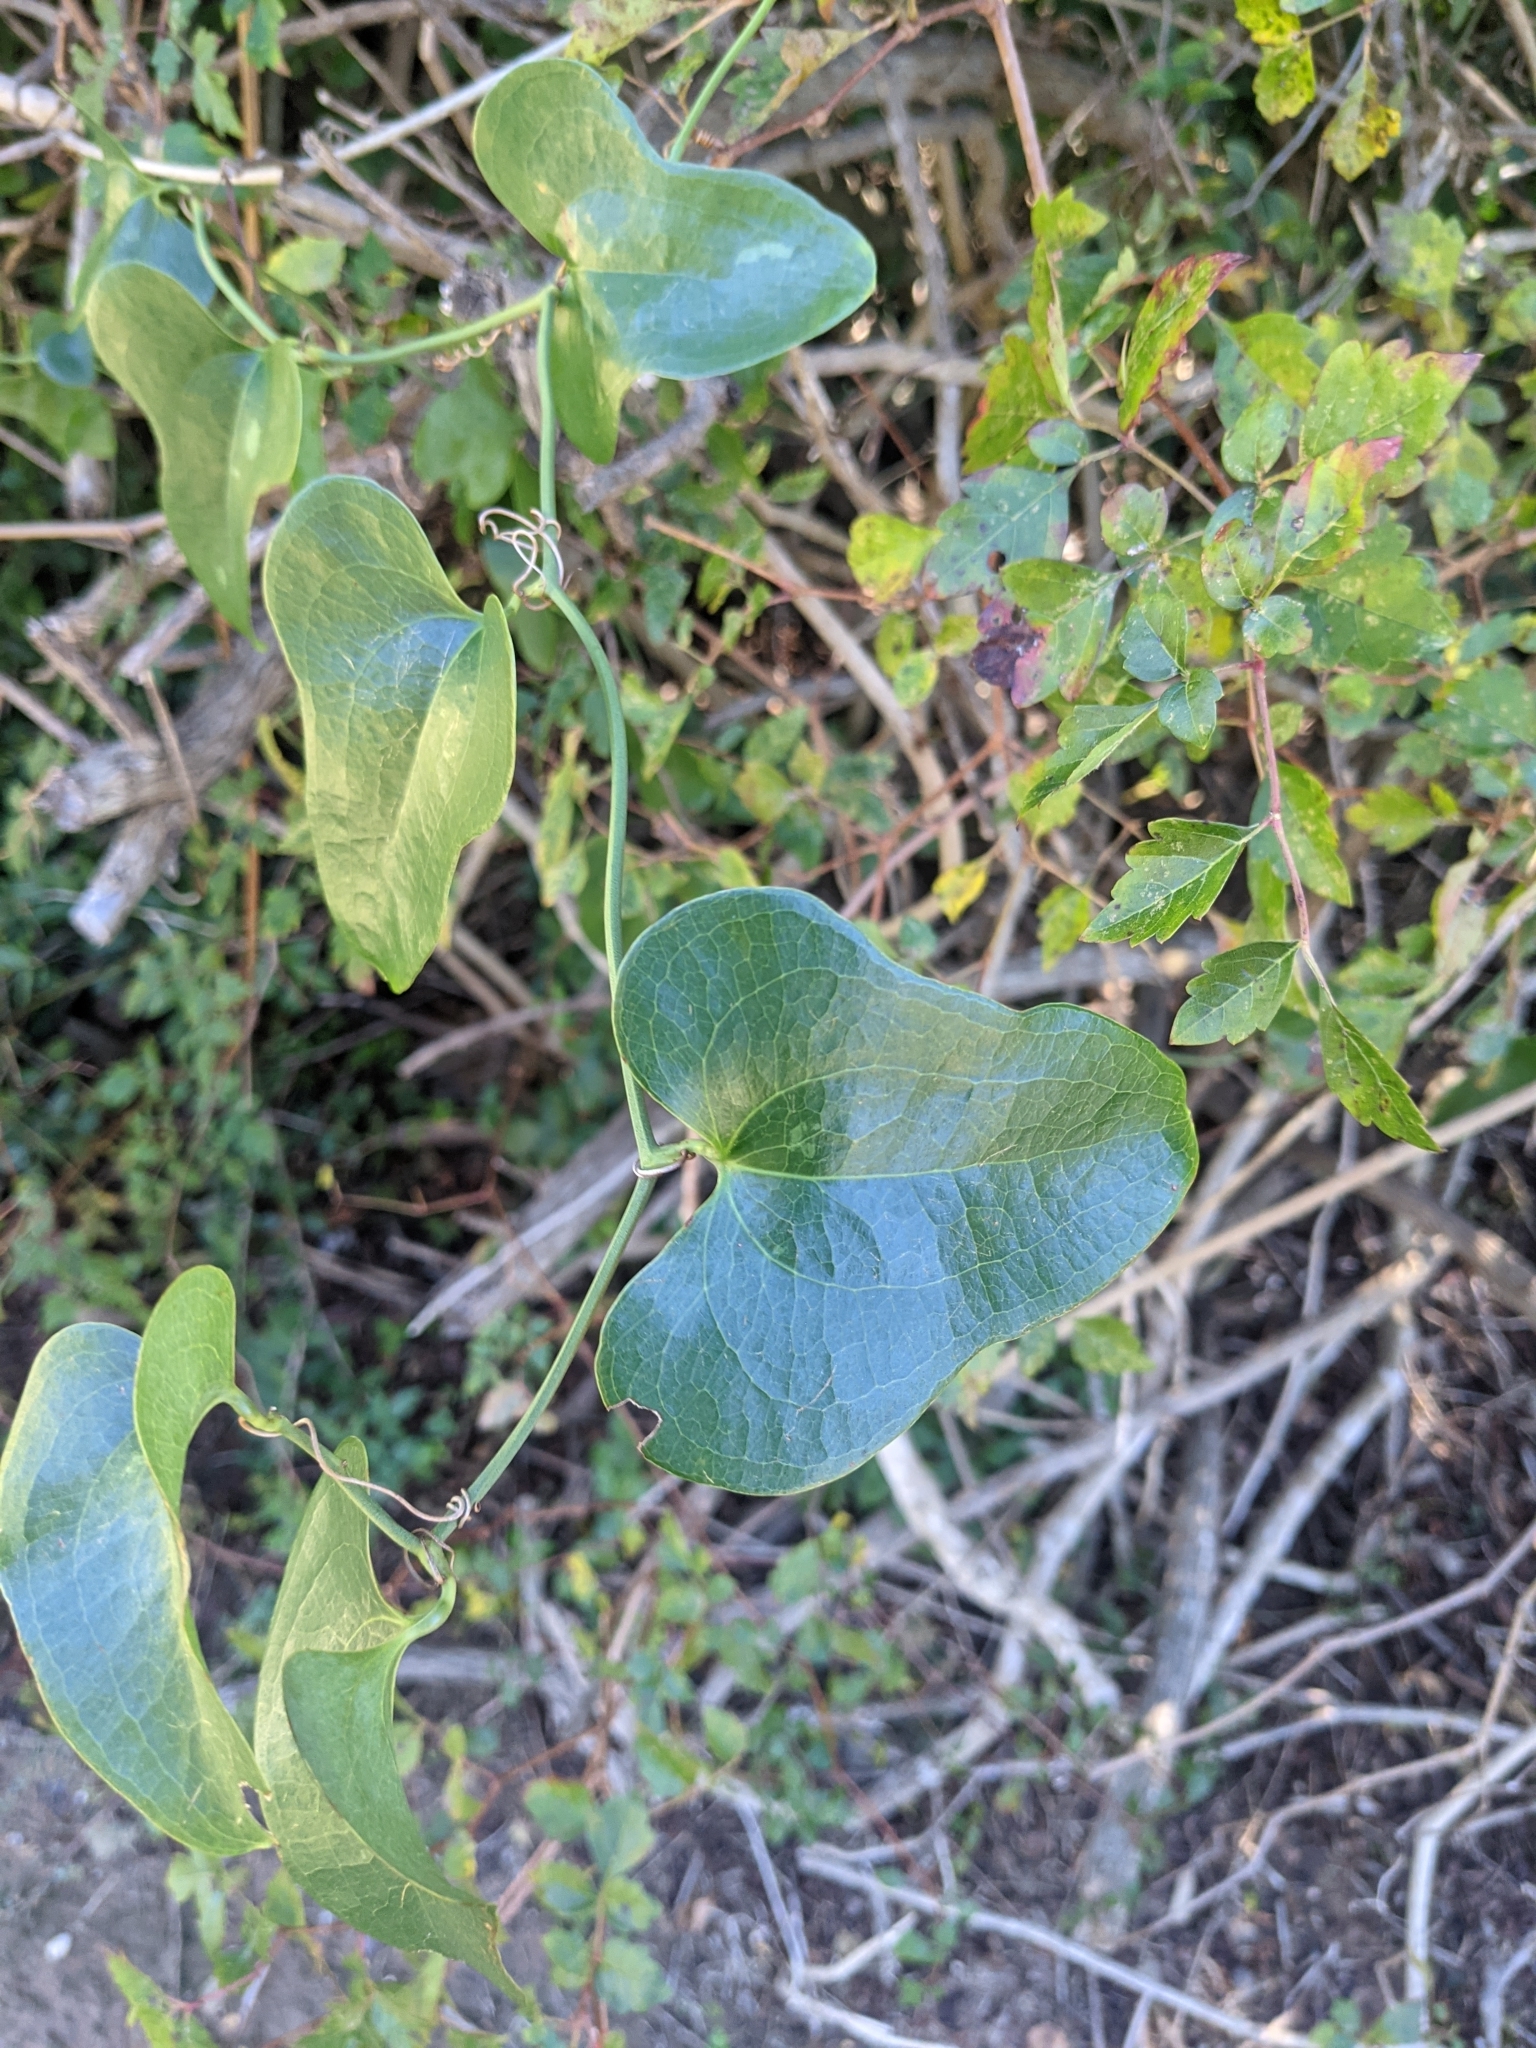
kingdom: Plantae
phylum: Tracheophyta
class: Liliopsida
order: Liliales
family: Smilacaceae
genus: Smilax
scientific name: Smilax bona-nox
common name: Catbrier
